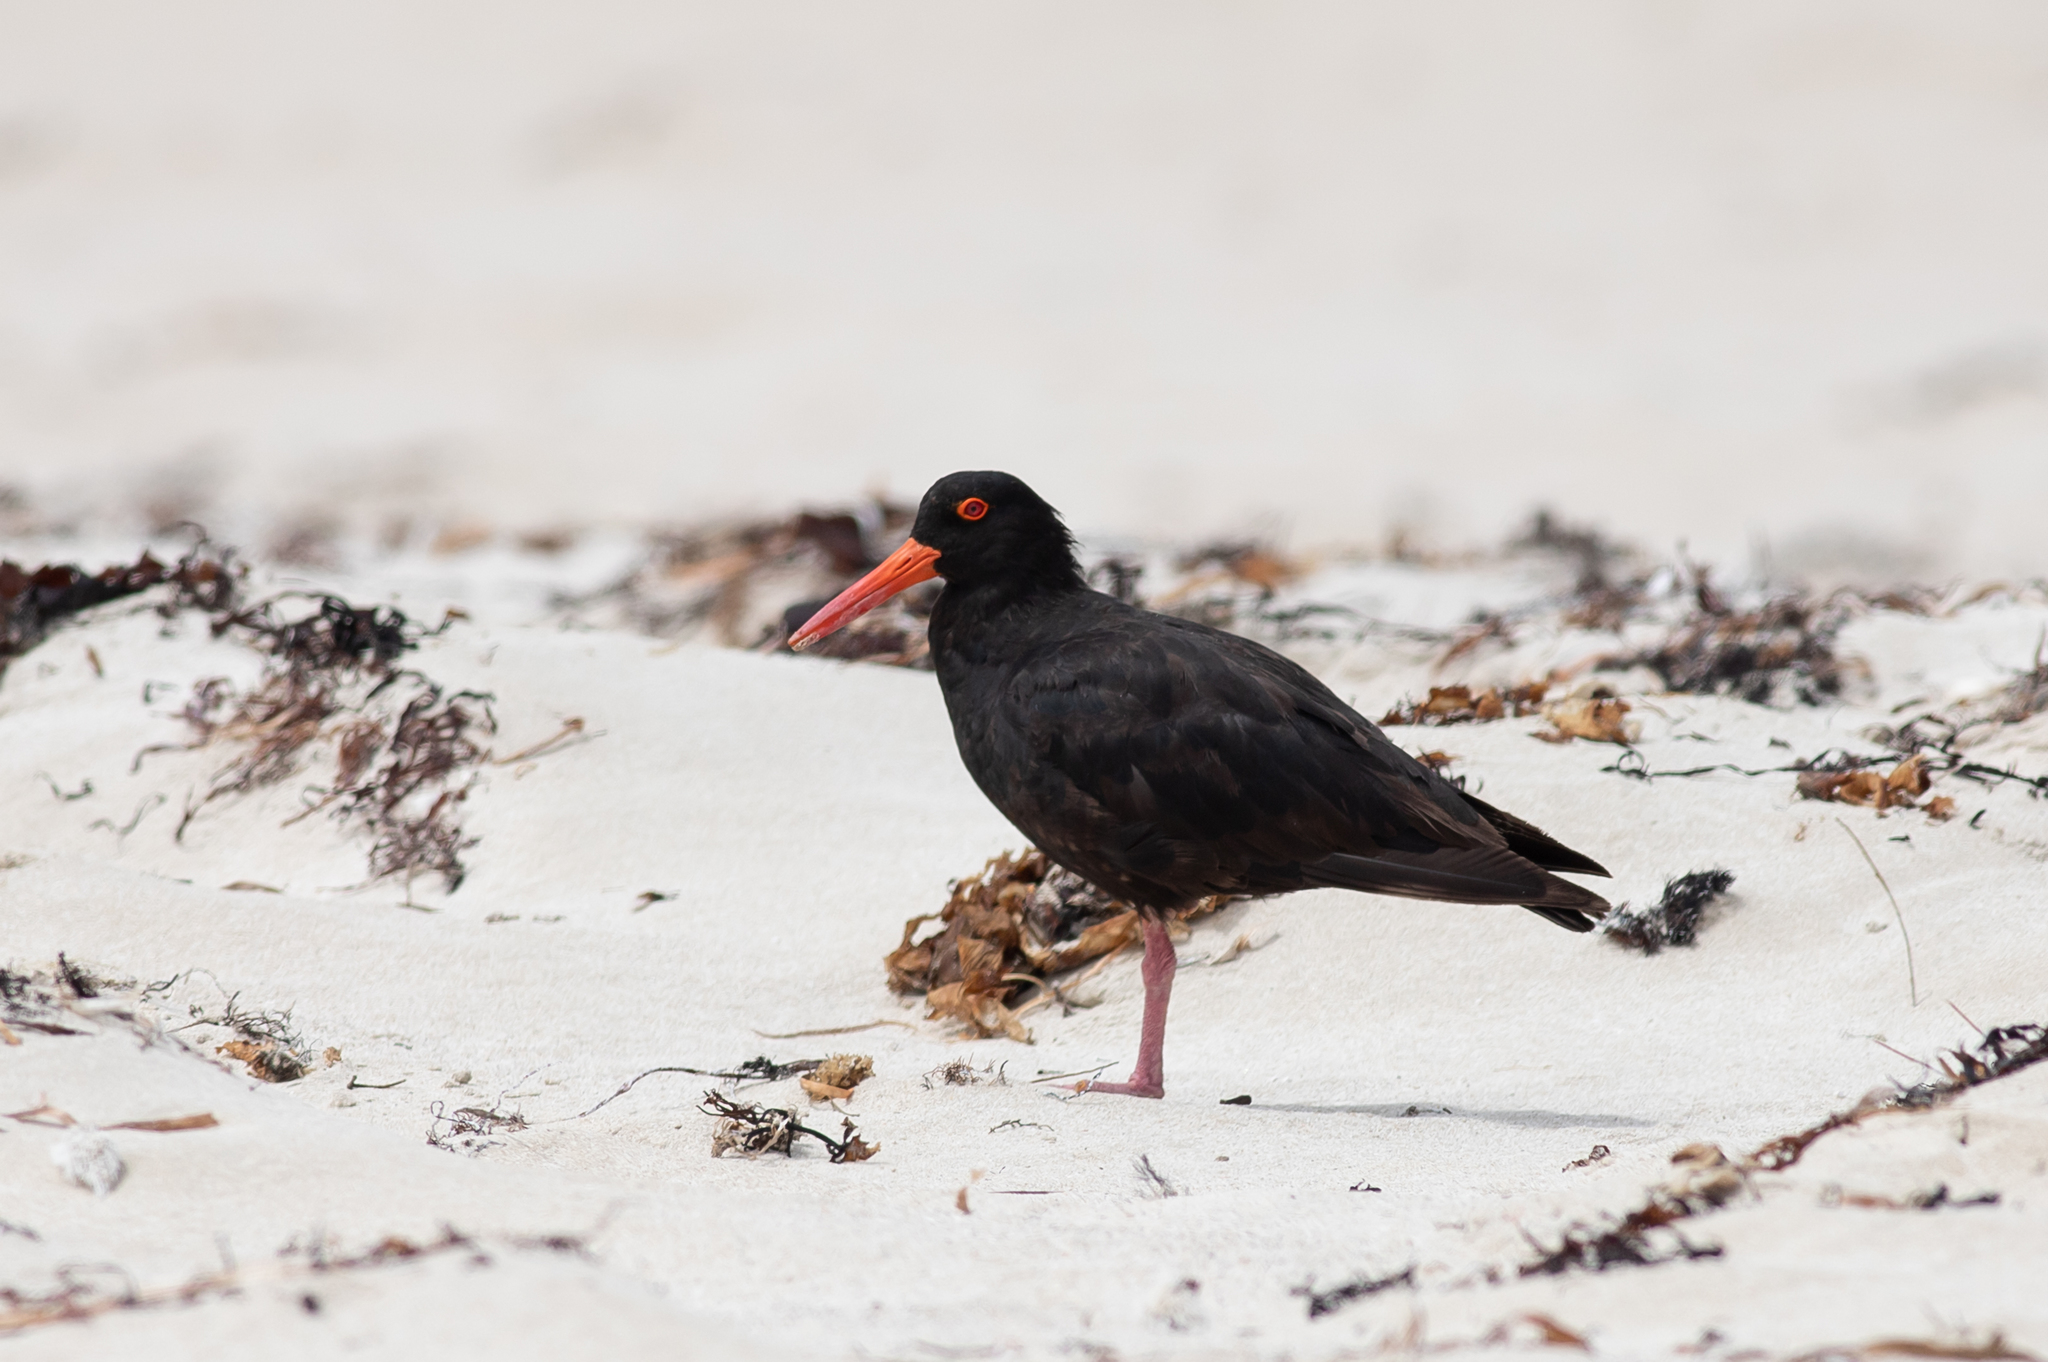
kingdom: Animalia
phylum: Chordata
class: Aves
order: Charadriiformes
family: Haematopodidae
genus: Haematopus
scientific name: Haematopus fuliginosus
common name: Sooty oystercatcher
